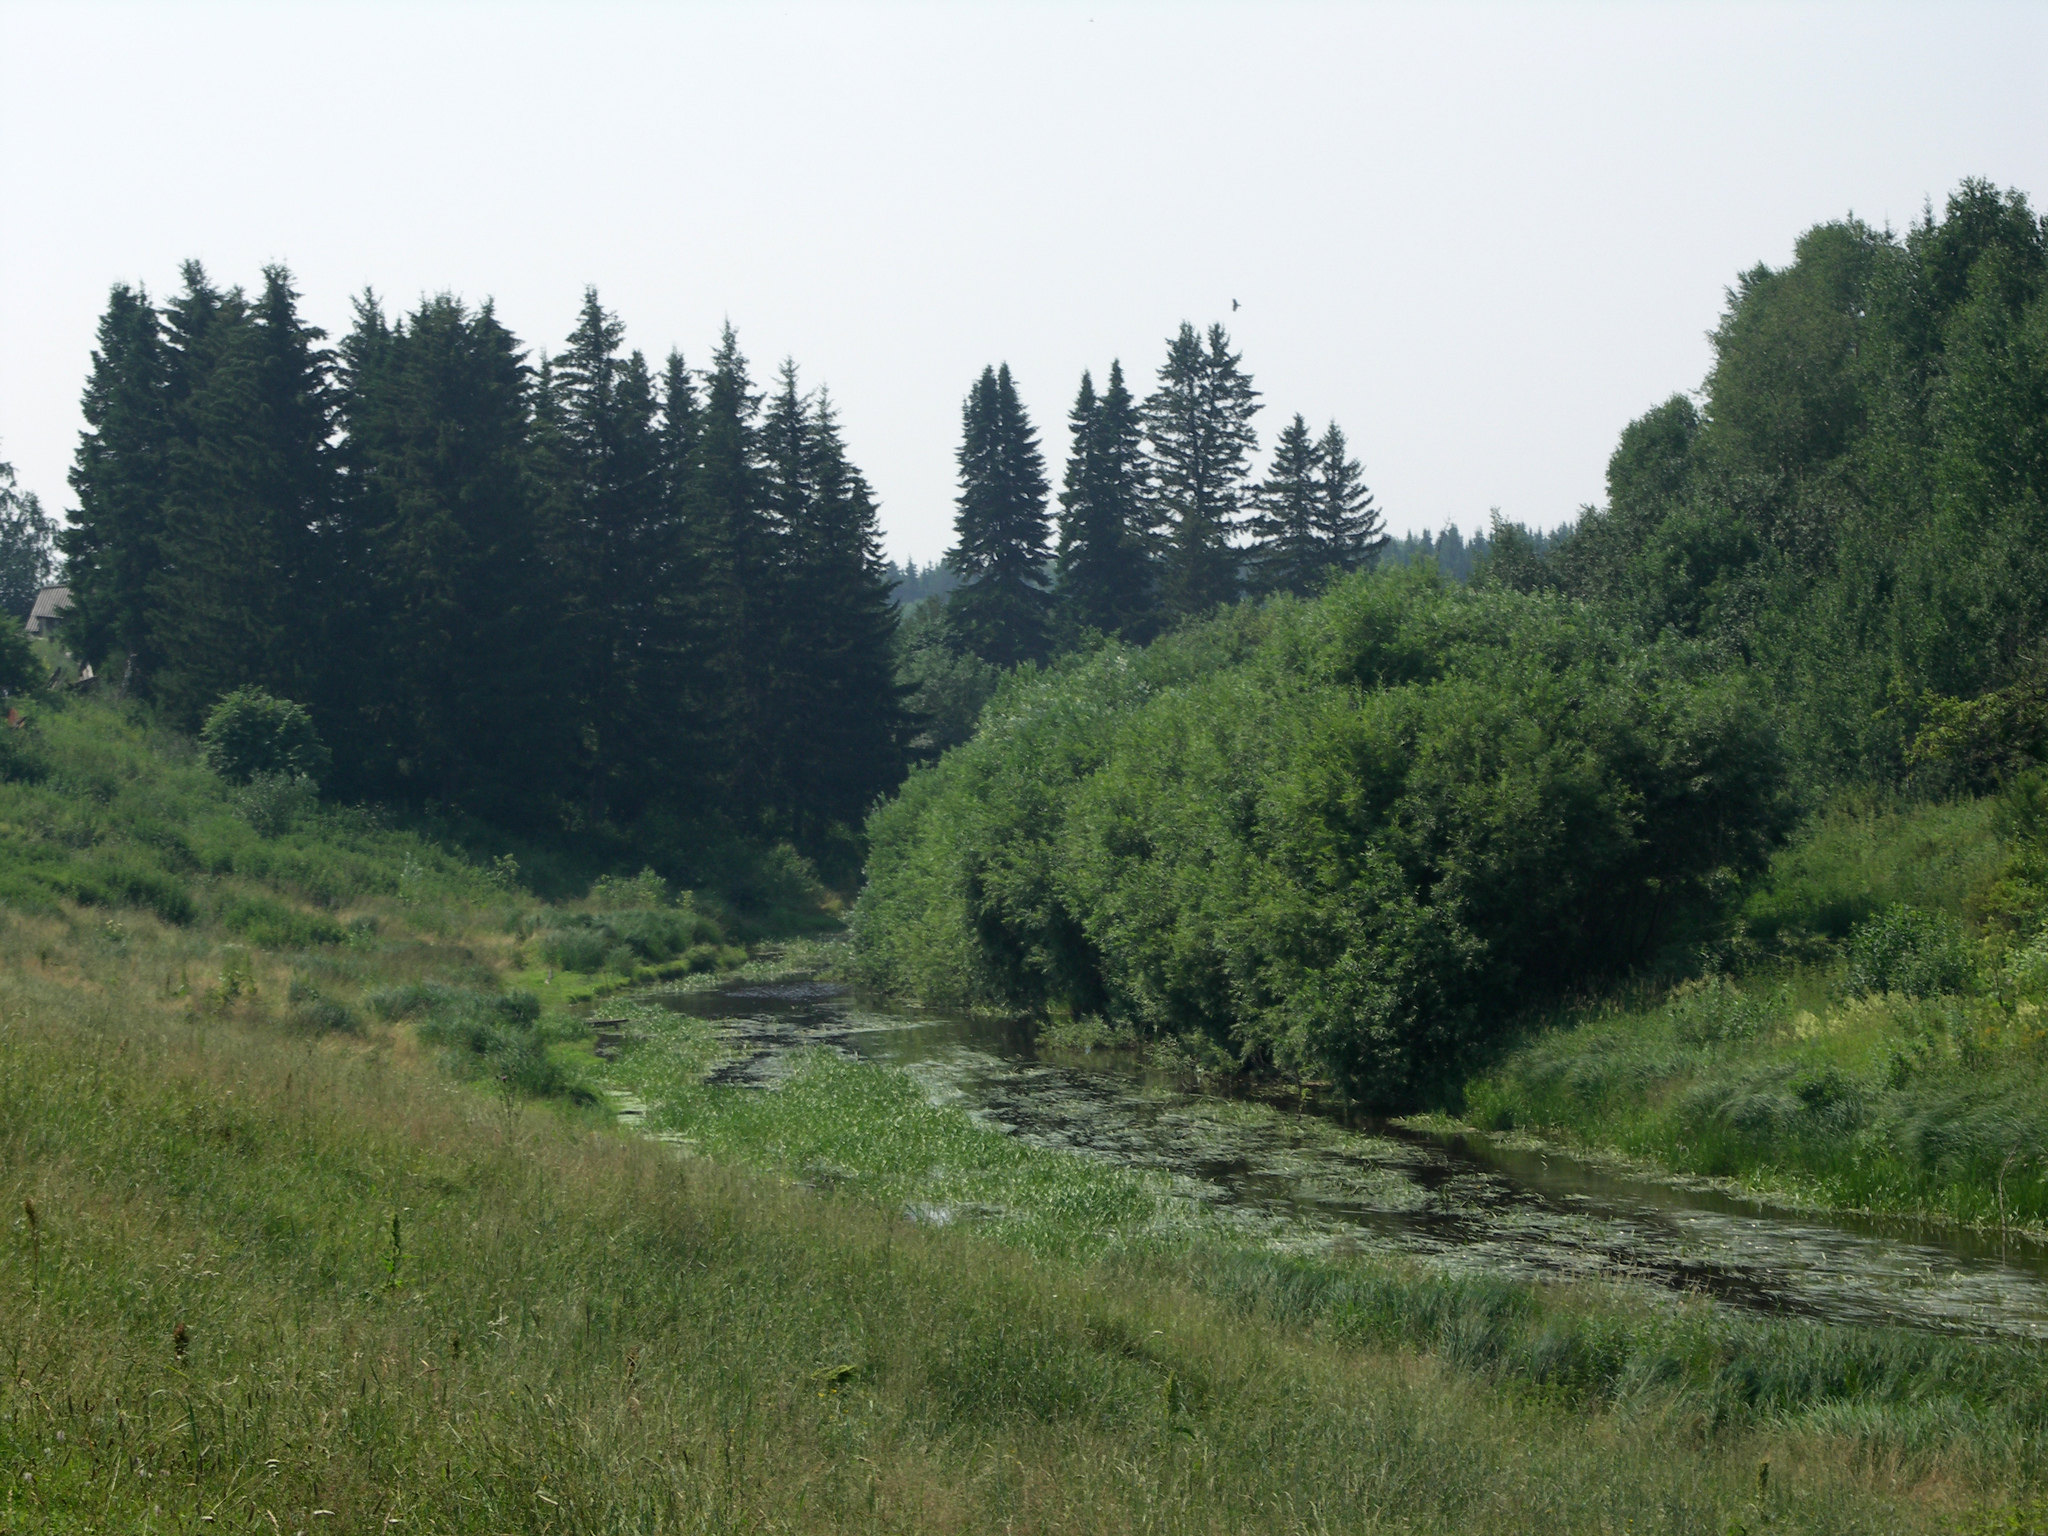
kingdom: Plantae
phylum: Tracheophyta
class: Pinopsida
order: Pinales
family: Pinaceae
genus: Picea
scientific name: Picea obovata
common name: Siberian spruce
